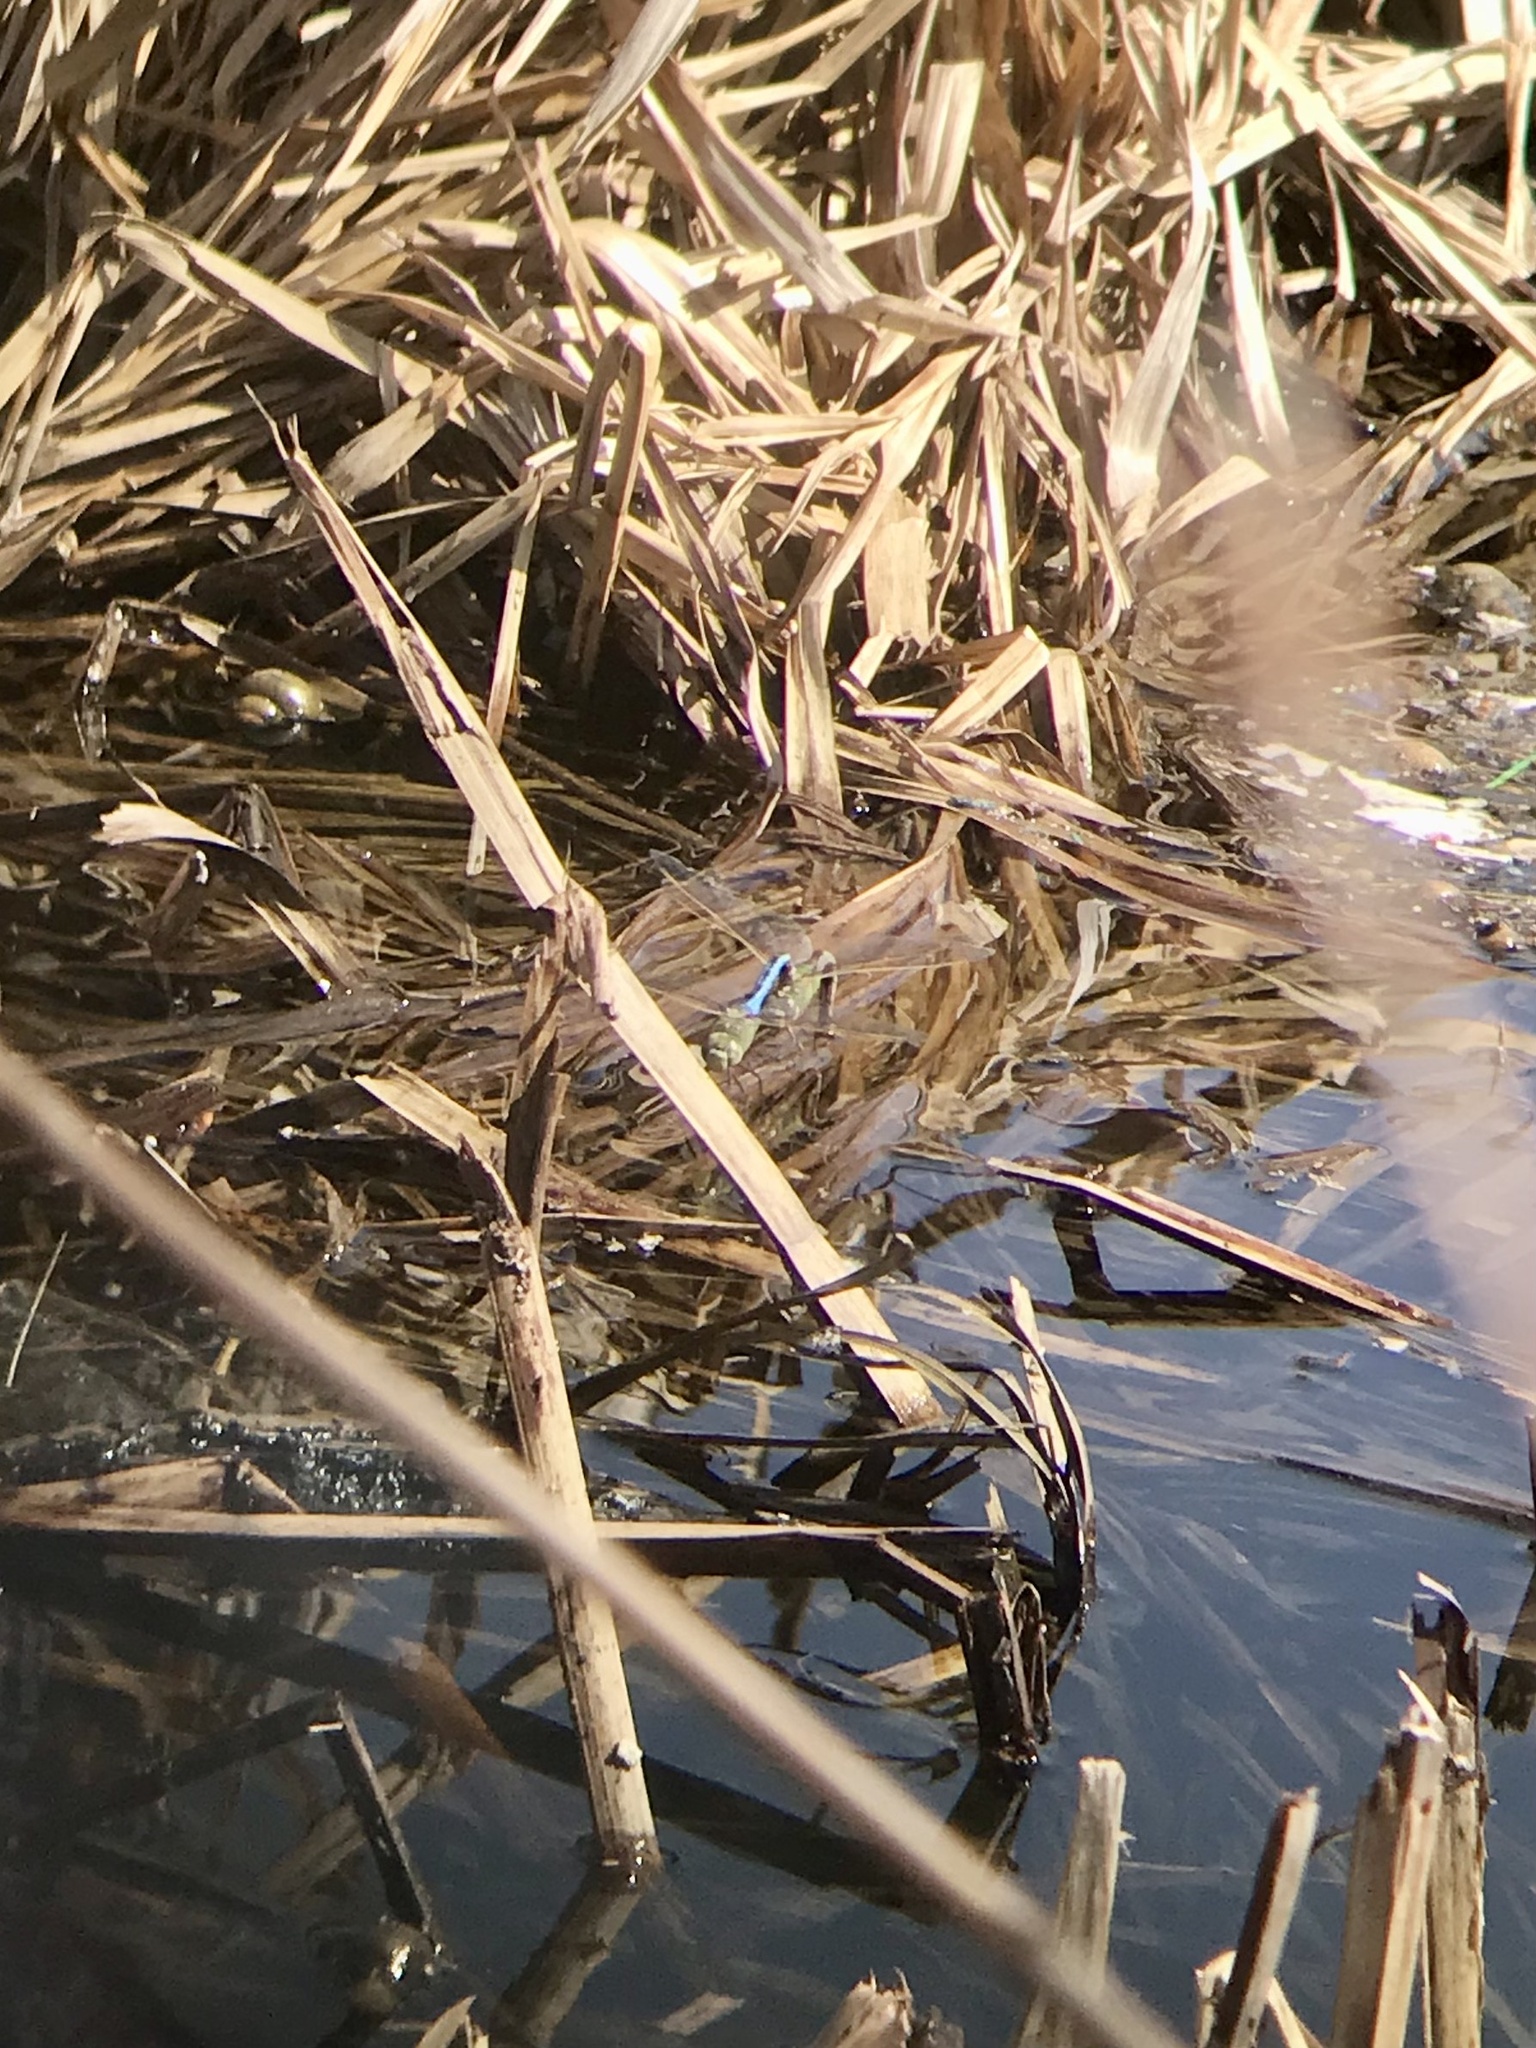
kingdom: Animalia
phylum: Arthropoda
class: Insecta
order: Odonata
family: Aeshnidae
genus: Anax
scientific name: Anax junius
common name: Common green darner
